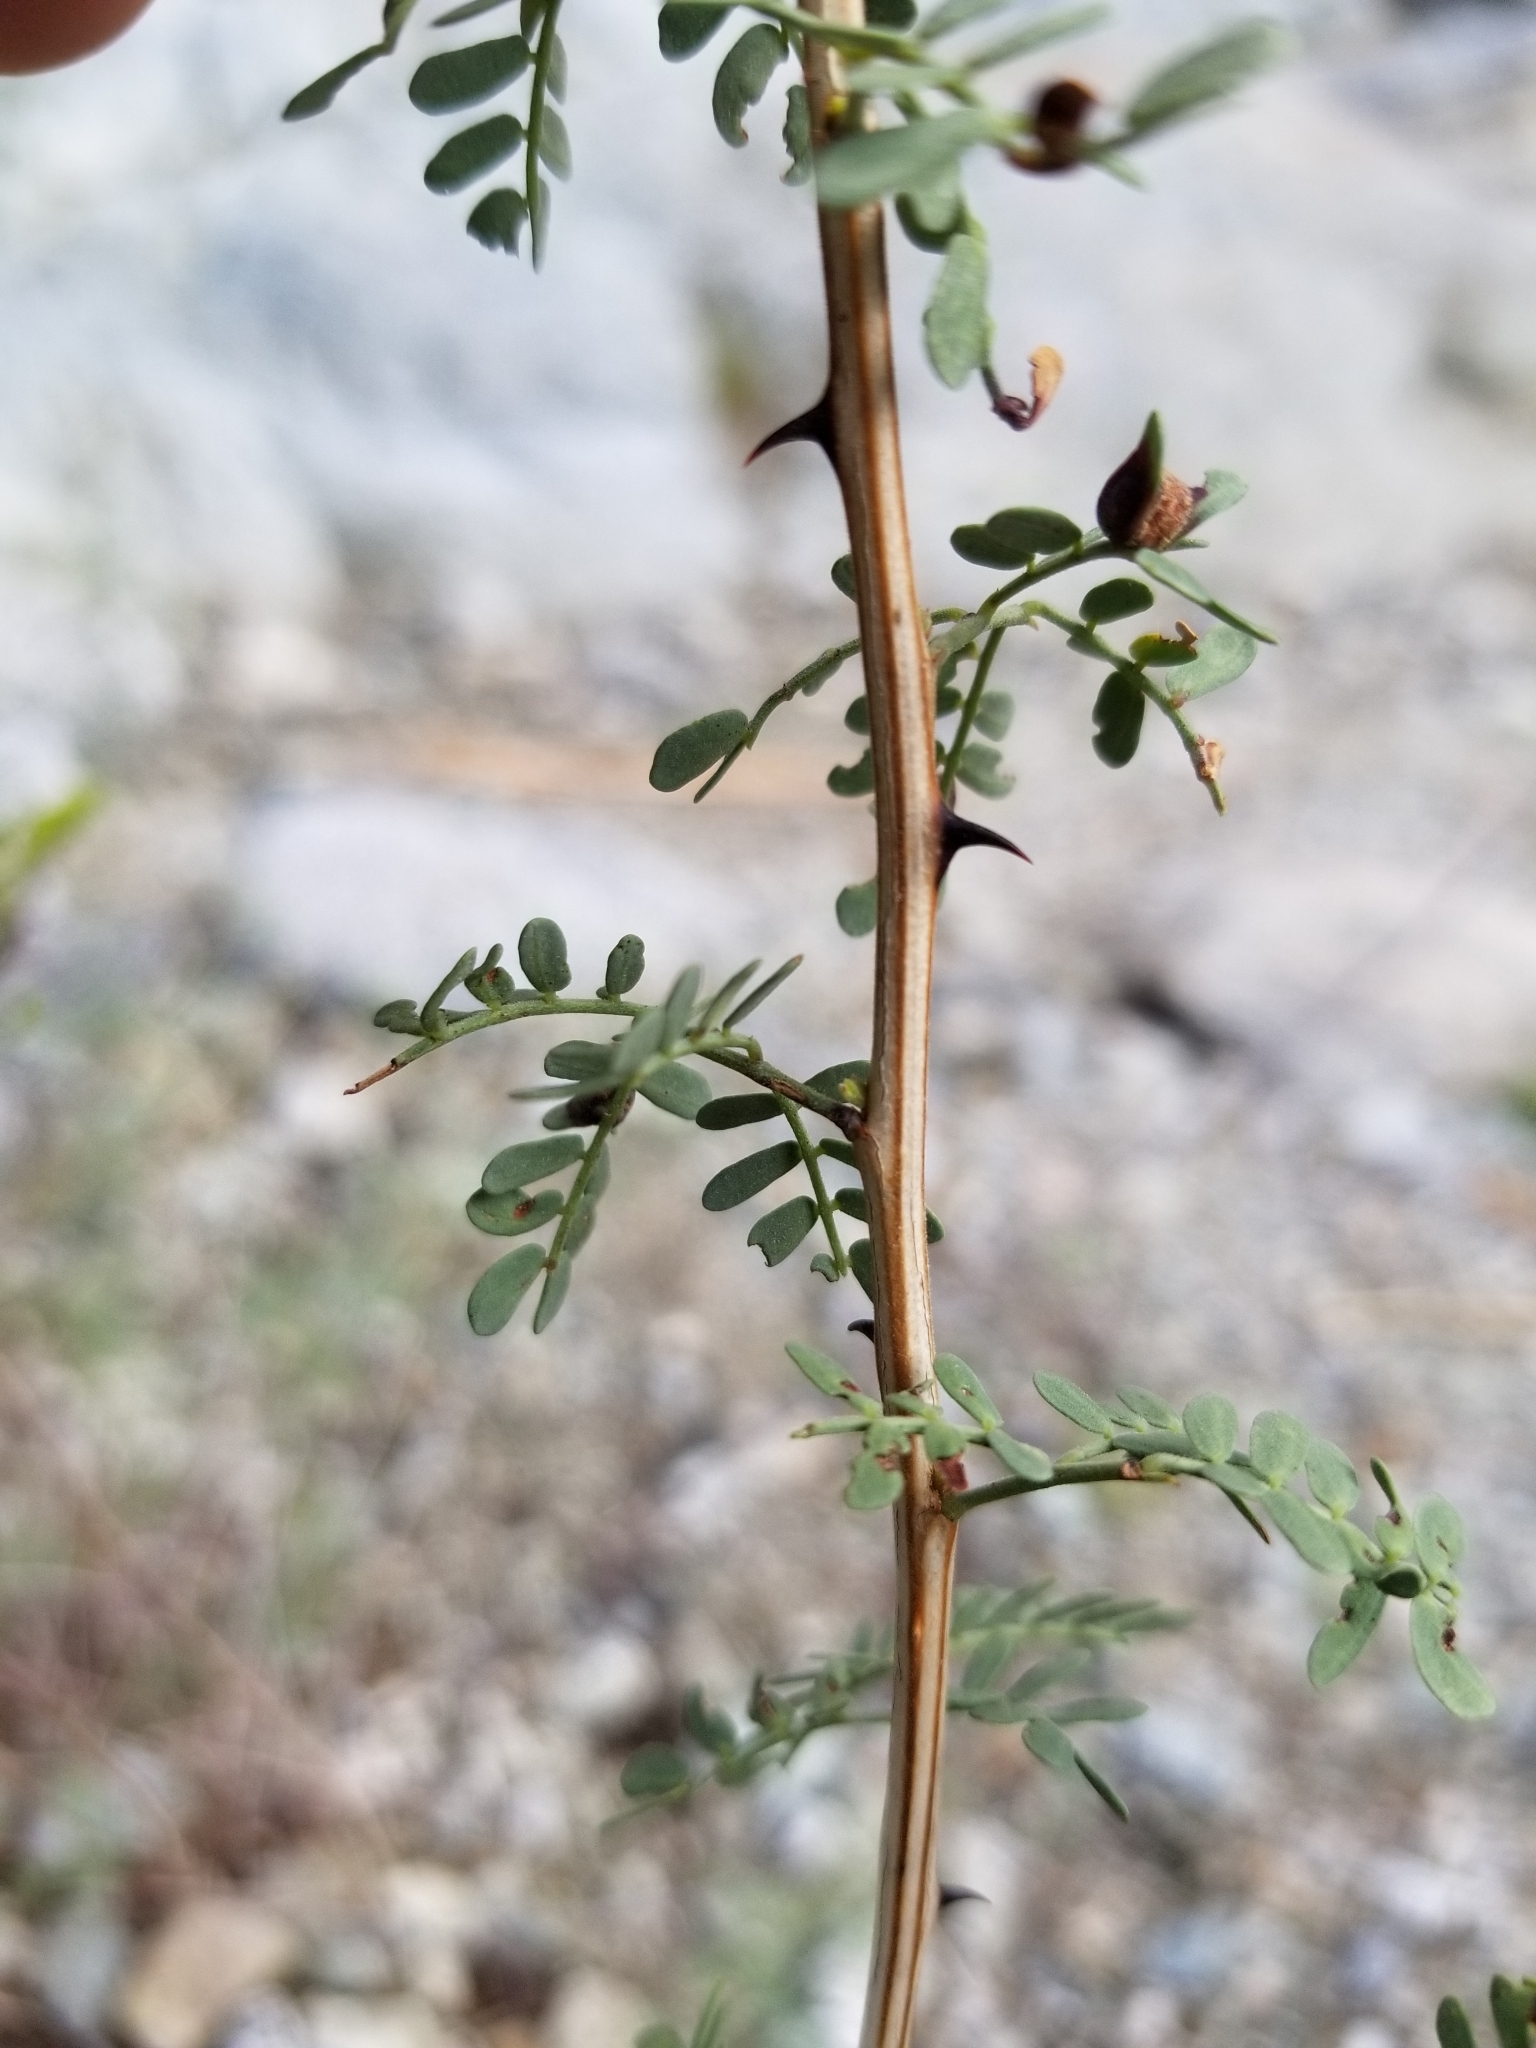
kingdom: Plantae
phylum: Tracheophyta
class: Magnoliopsida
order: Fabales
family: Fabaceae
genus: Senegalia
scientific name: Senegalia greggii
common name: Texas-mimosa
